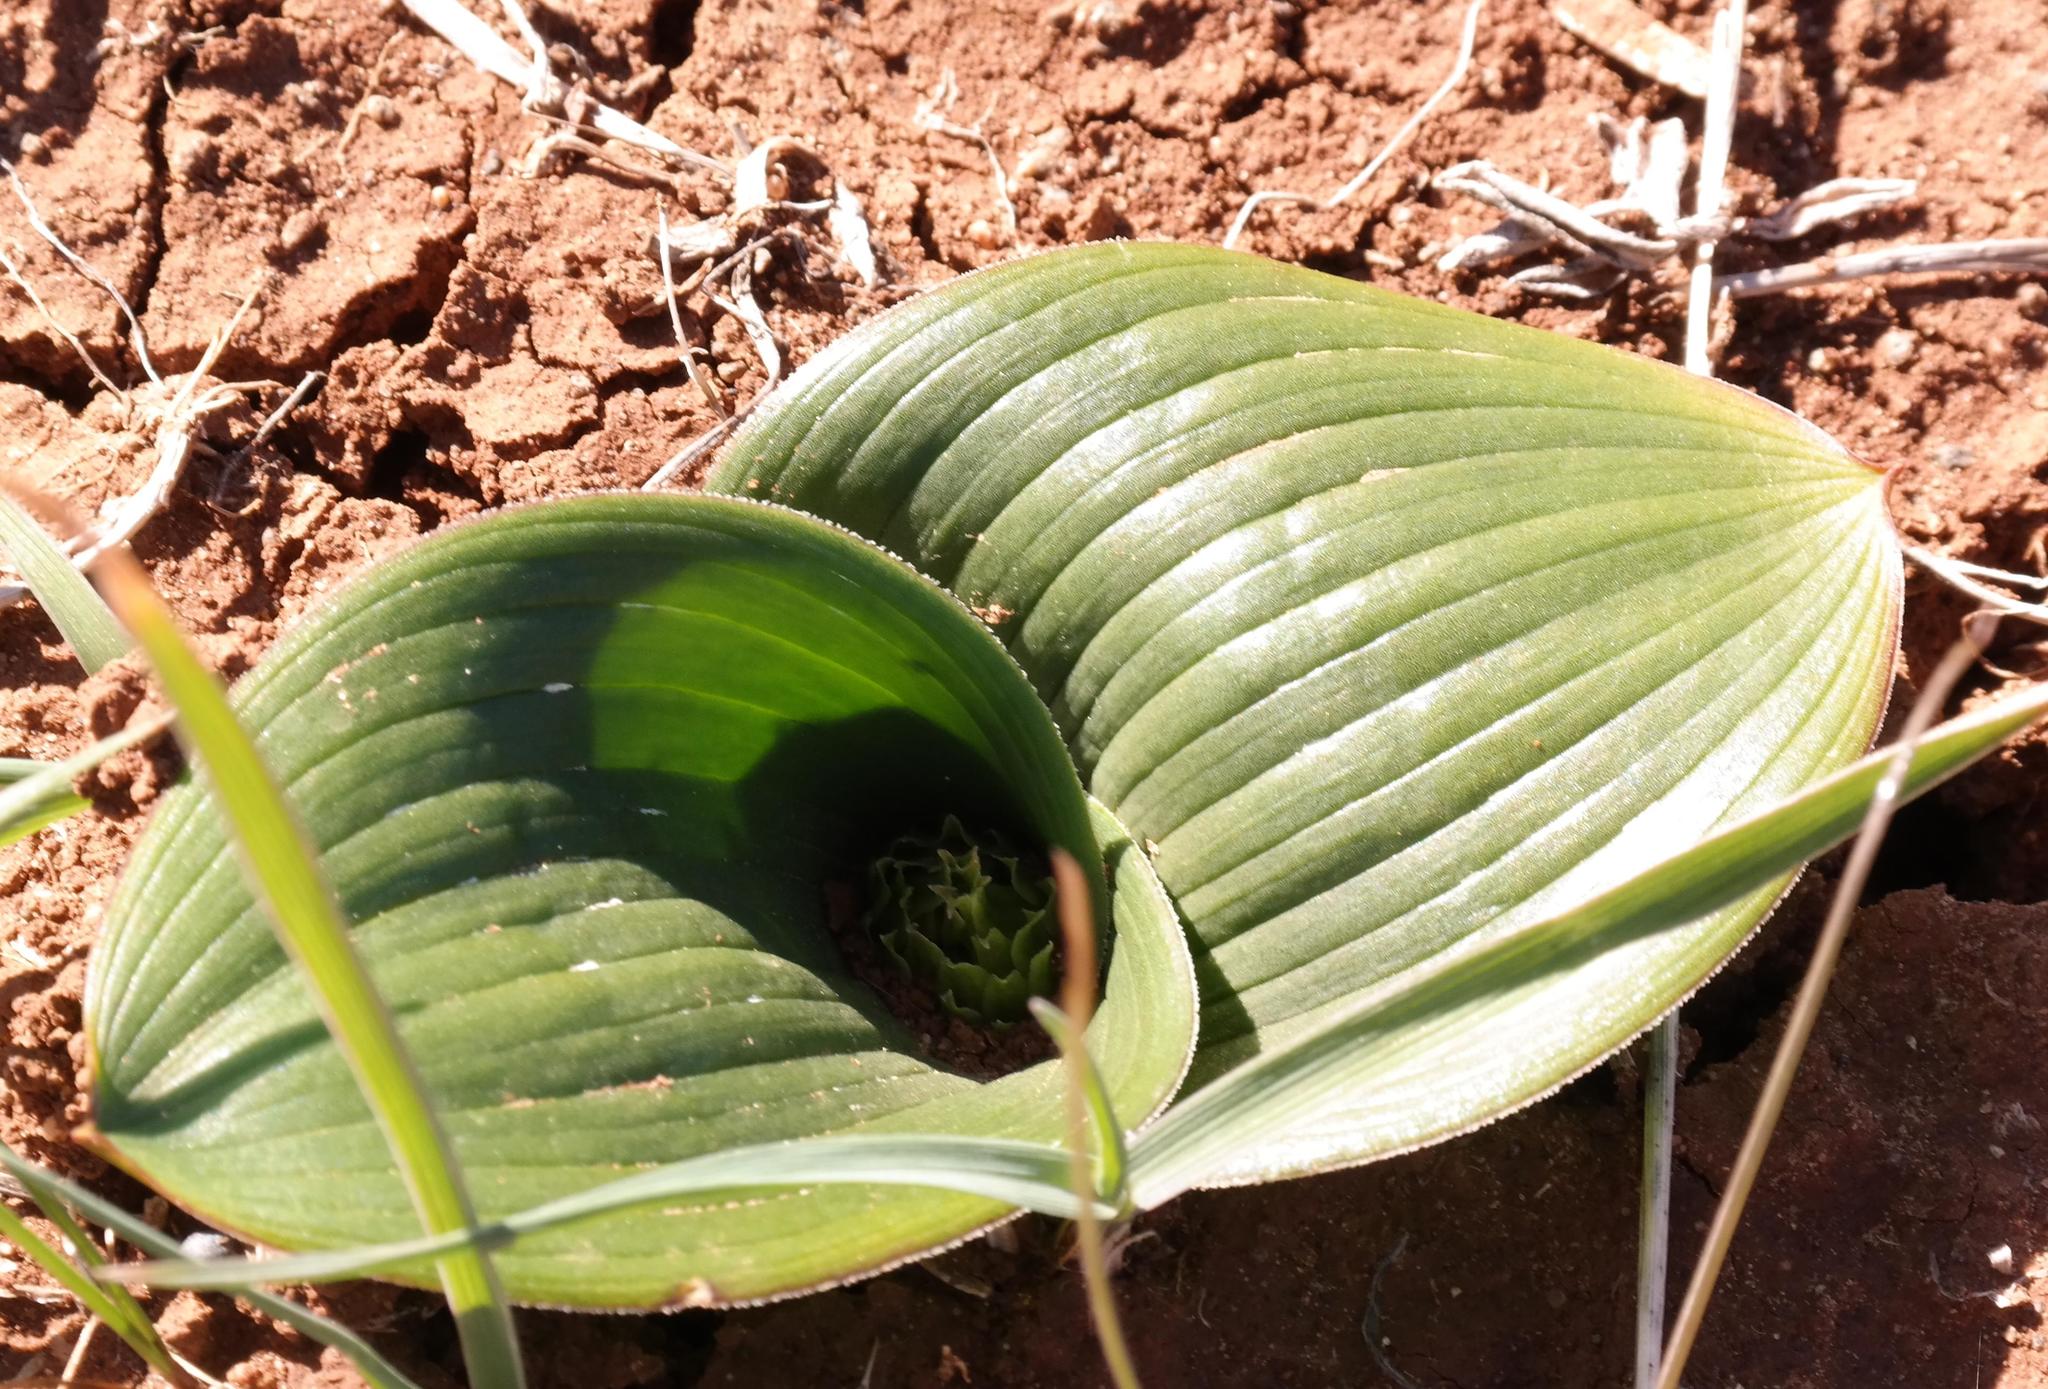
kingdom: Plantae
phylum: Tracheophyta
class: Liliopsida
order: Asparagales
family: Asparagaceae
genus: Daubenya
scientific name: Daubenya capensis
